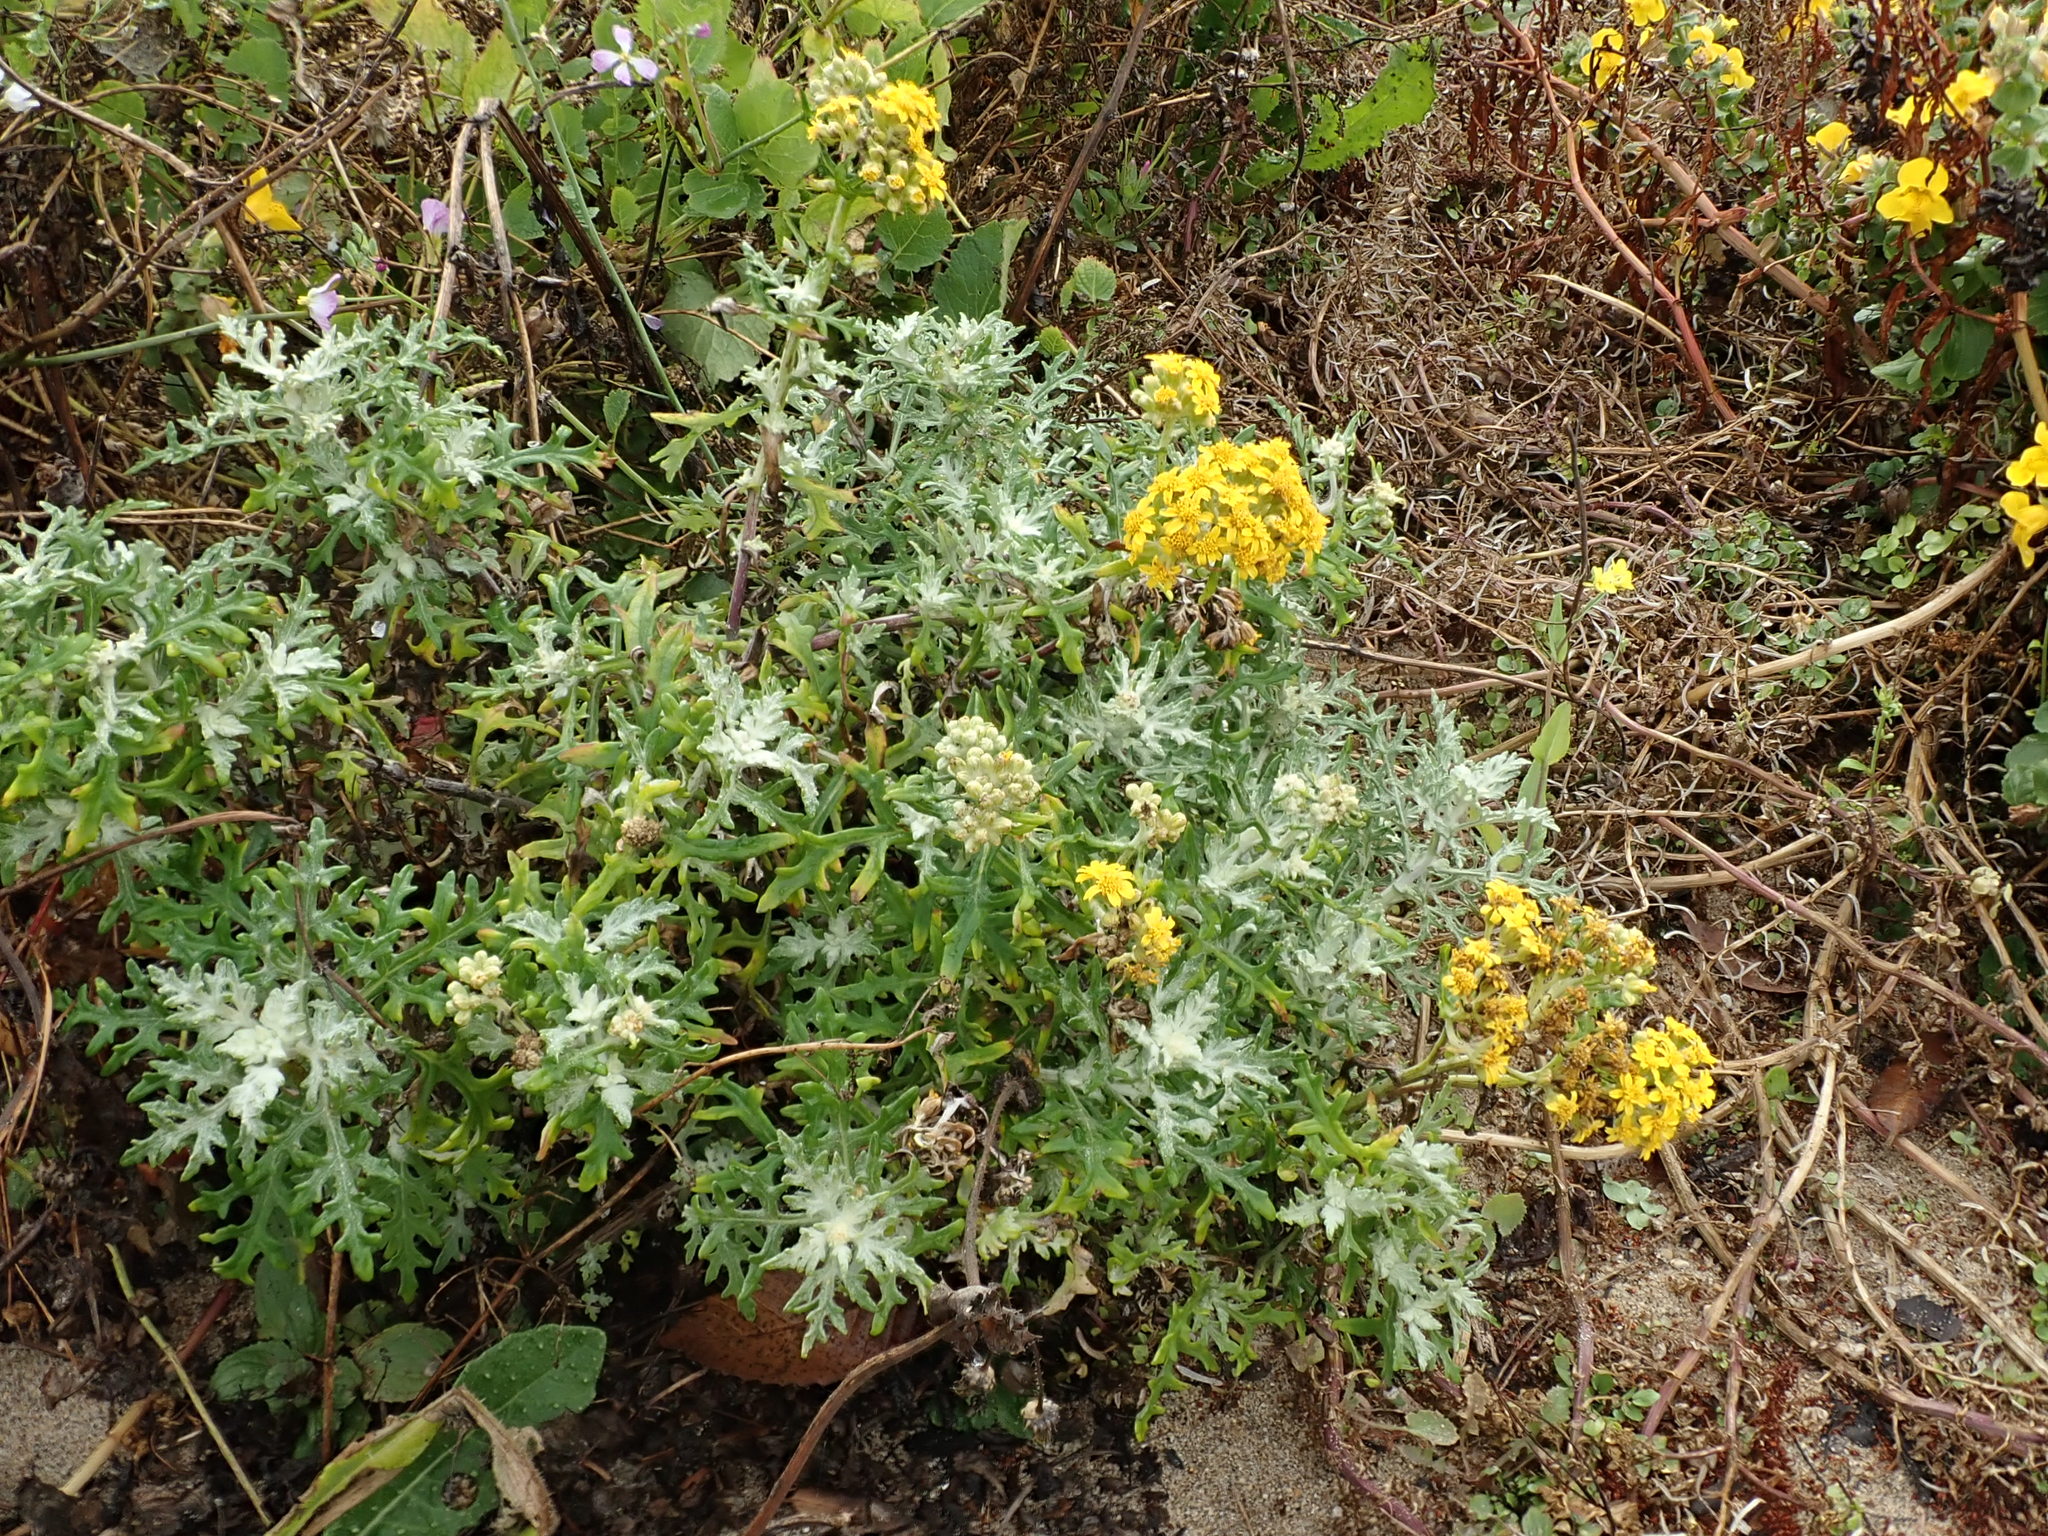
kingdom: Plantae
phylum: Tracheophyta
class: Magnoliopsida
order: Asterales
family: Asteraceae
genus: Eriophyllum
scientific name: Eriophyllum staechadifolium
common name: Lizardtail
